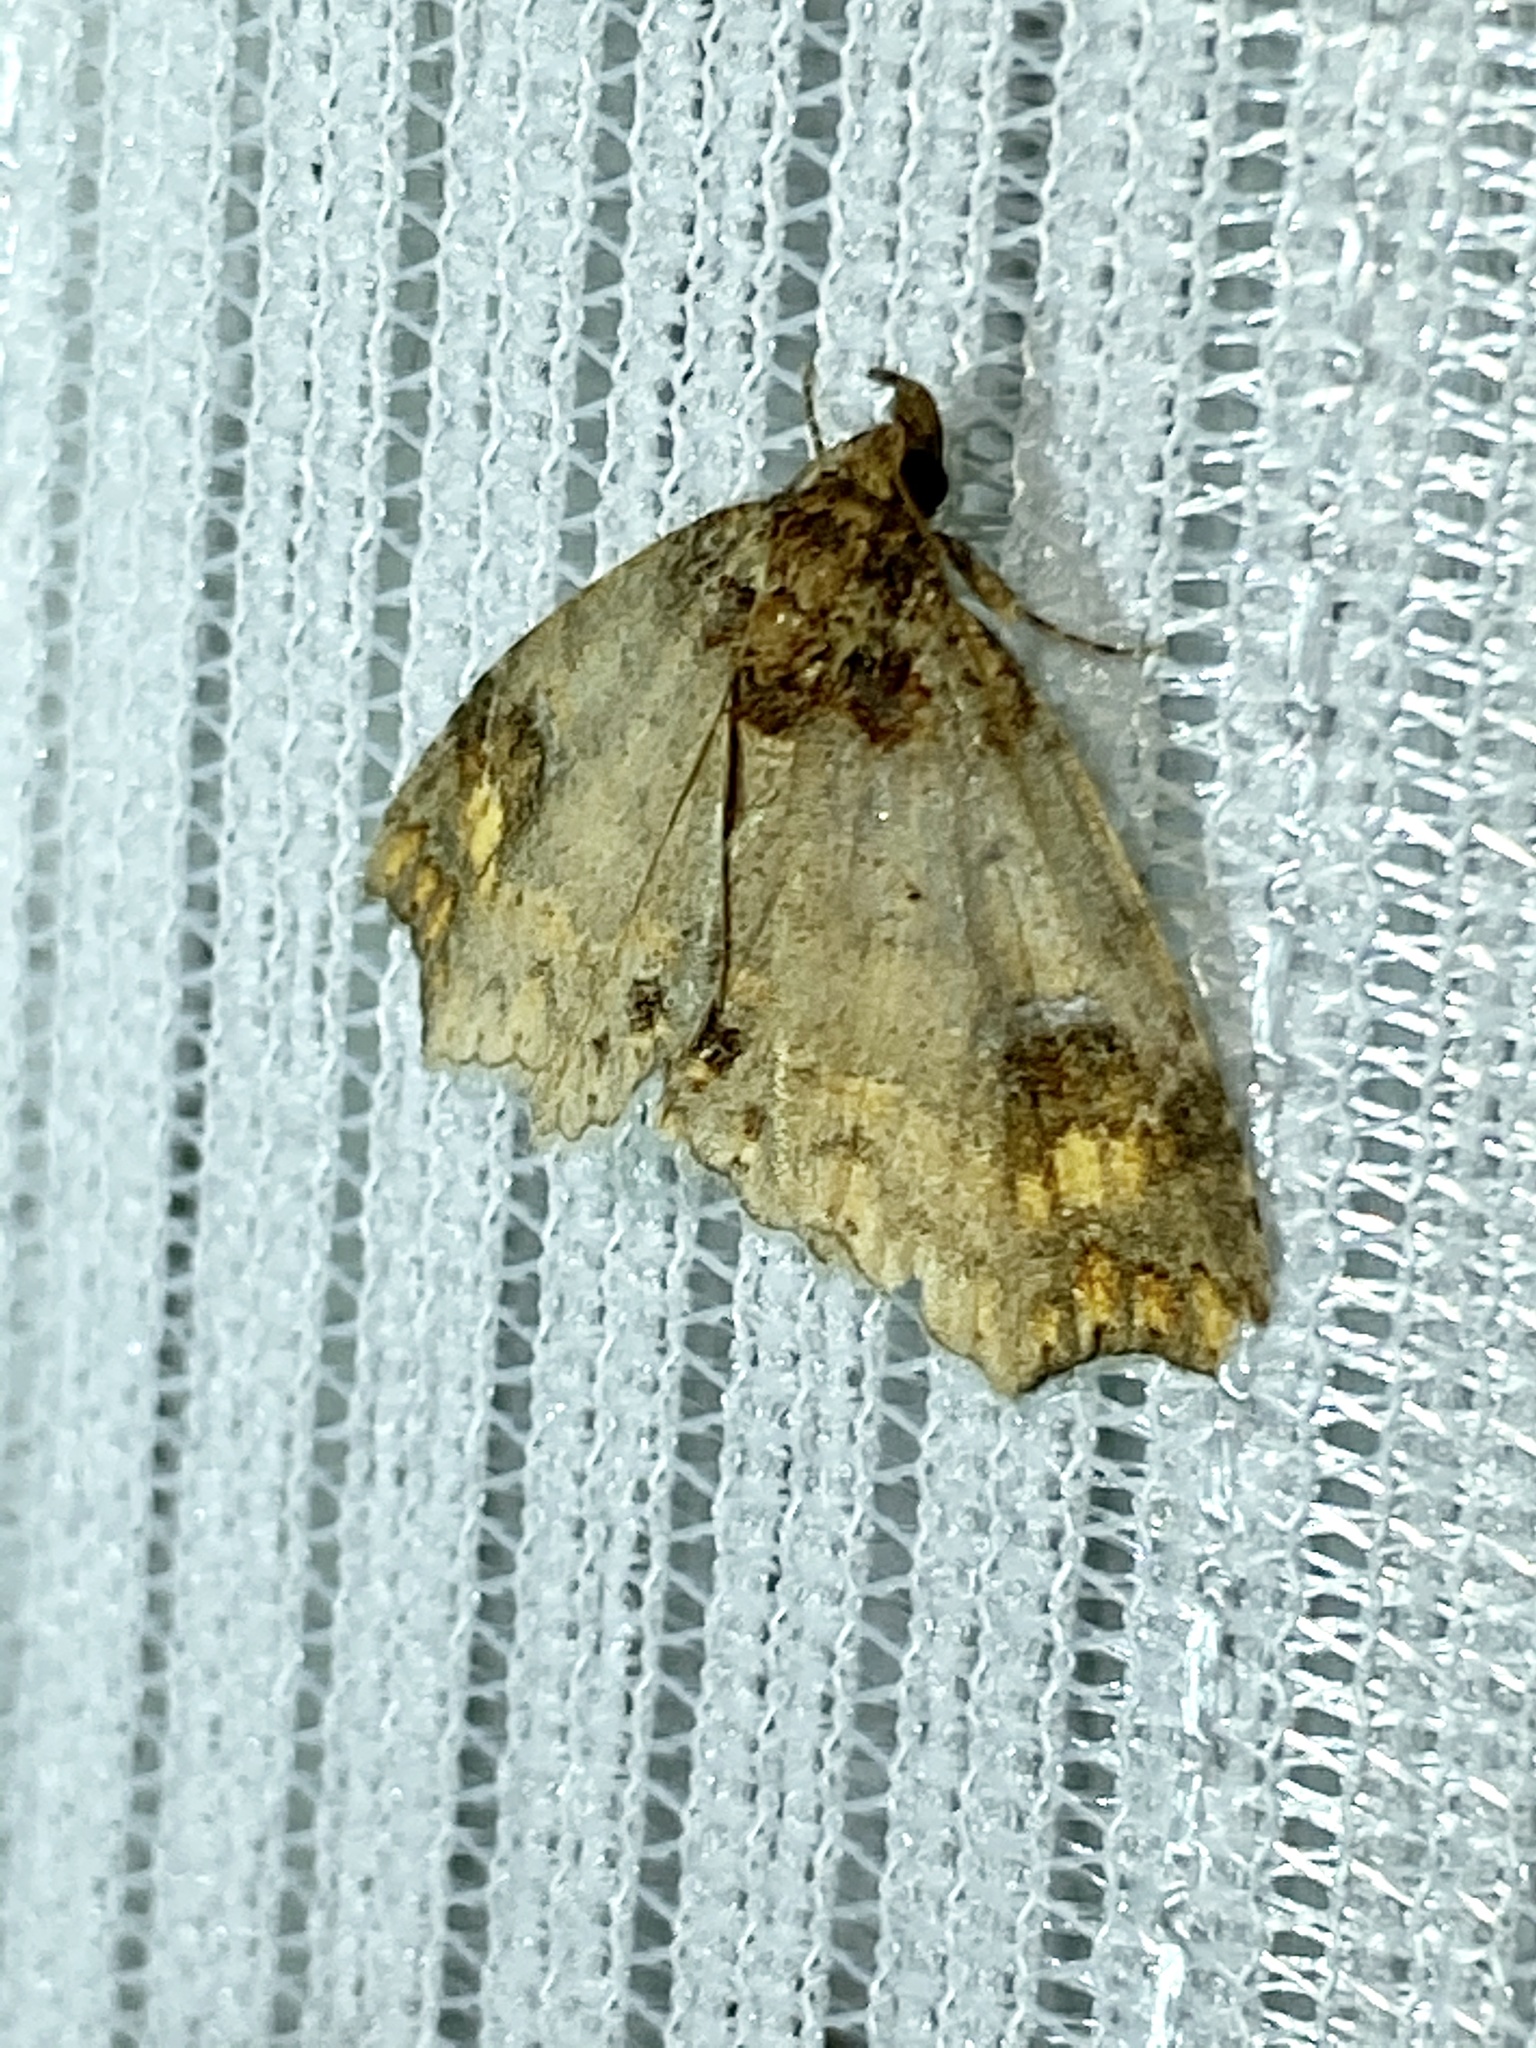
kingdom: Animalia
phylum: Arthropoda
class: Insecta
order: Lepidoptera
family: Erebidae
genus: Eugrapta
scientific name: Eugrapta igniflua
